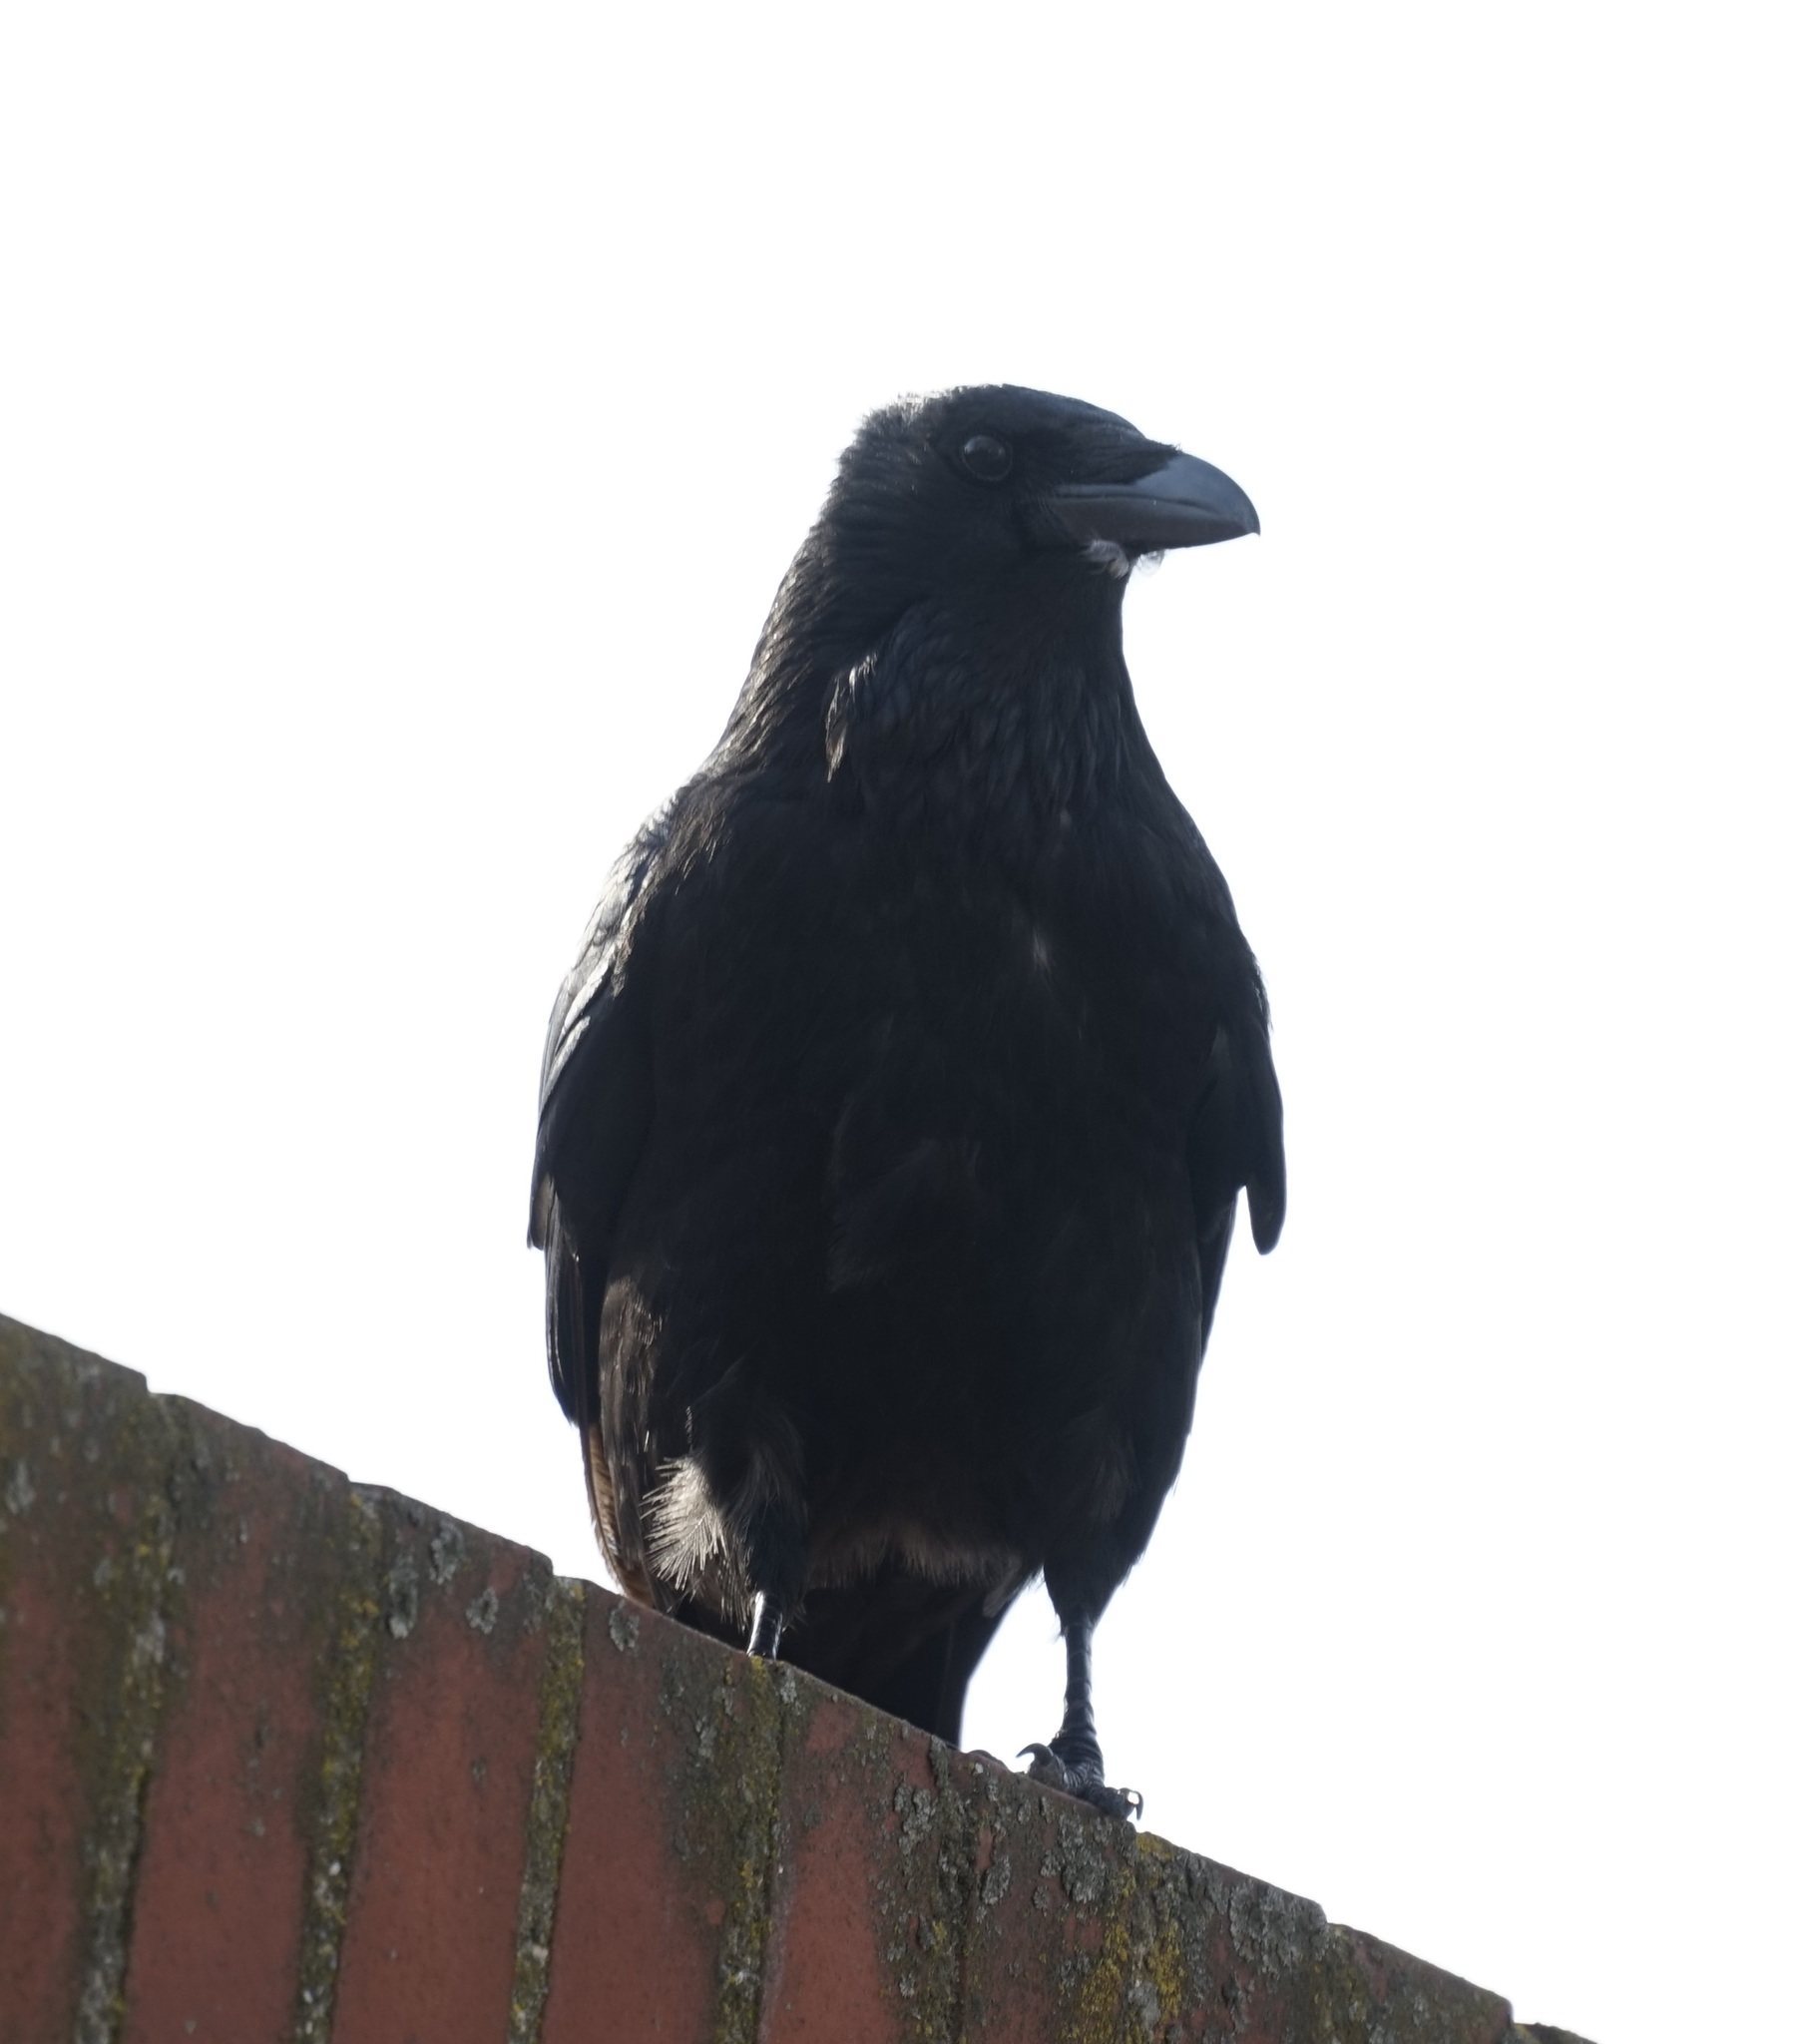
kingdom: Animalia
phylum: Chordata
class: Aves
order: Passeriformes
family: Corvidae
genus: Corvus
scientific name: Corvus corone
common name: Carrion crow
